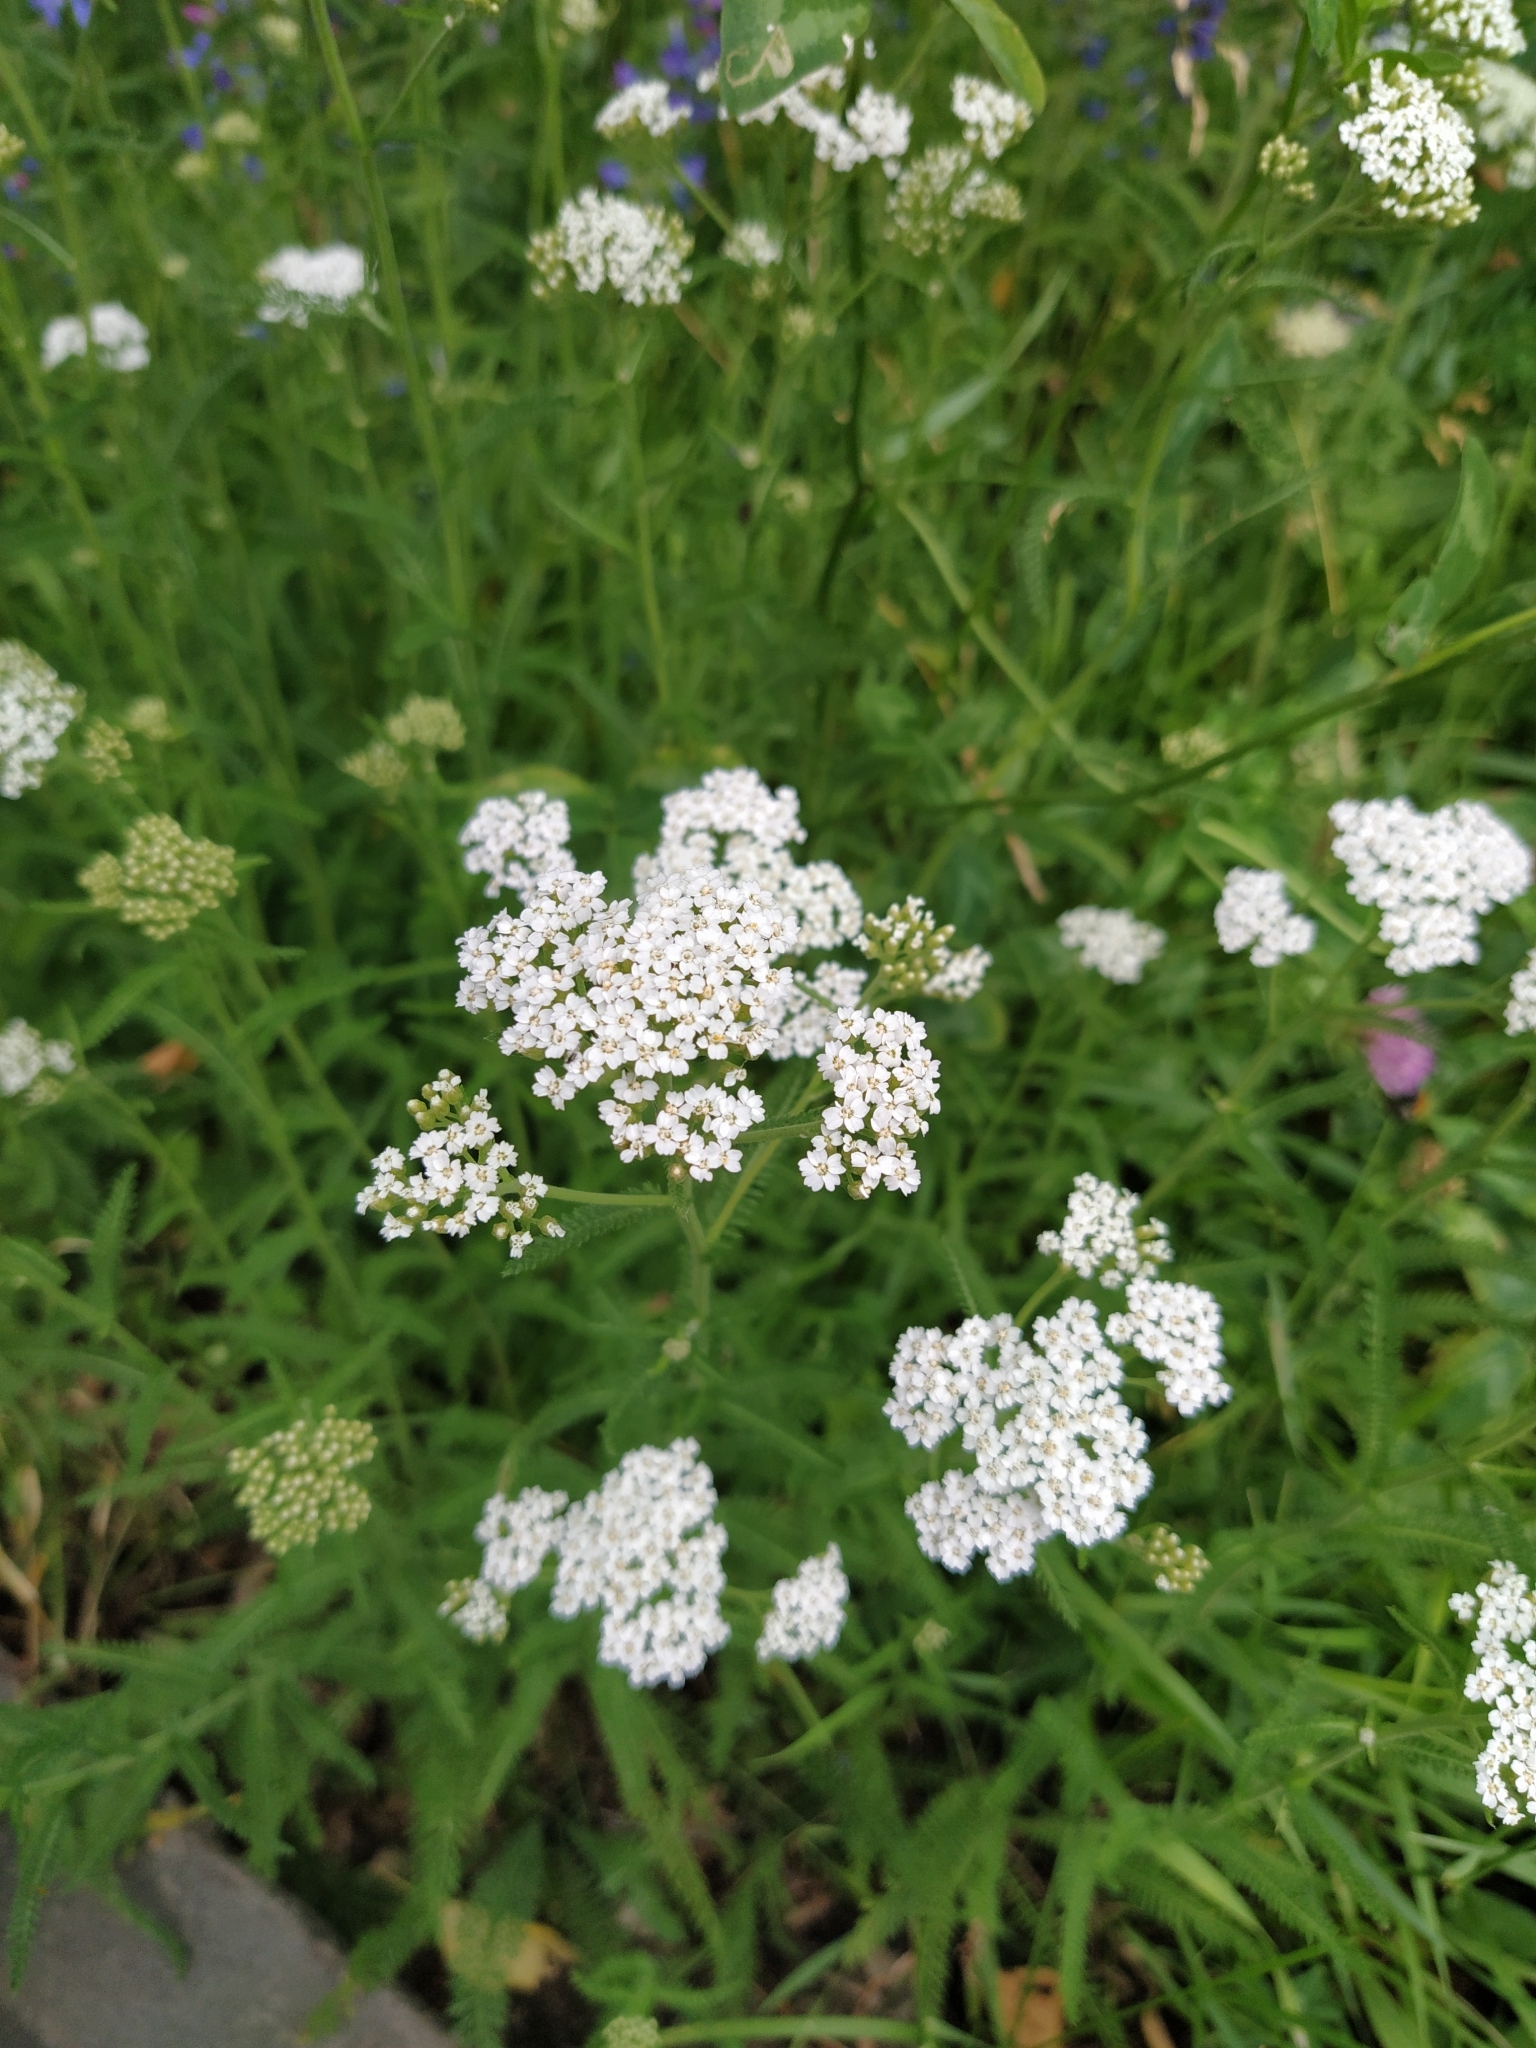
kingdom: Plantae
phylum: Tracheophyta
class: Magnoliopsida
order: Asterales
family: Asteraceae
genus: Achillea
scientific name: Achillea millefolium
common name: Yarrow
